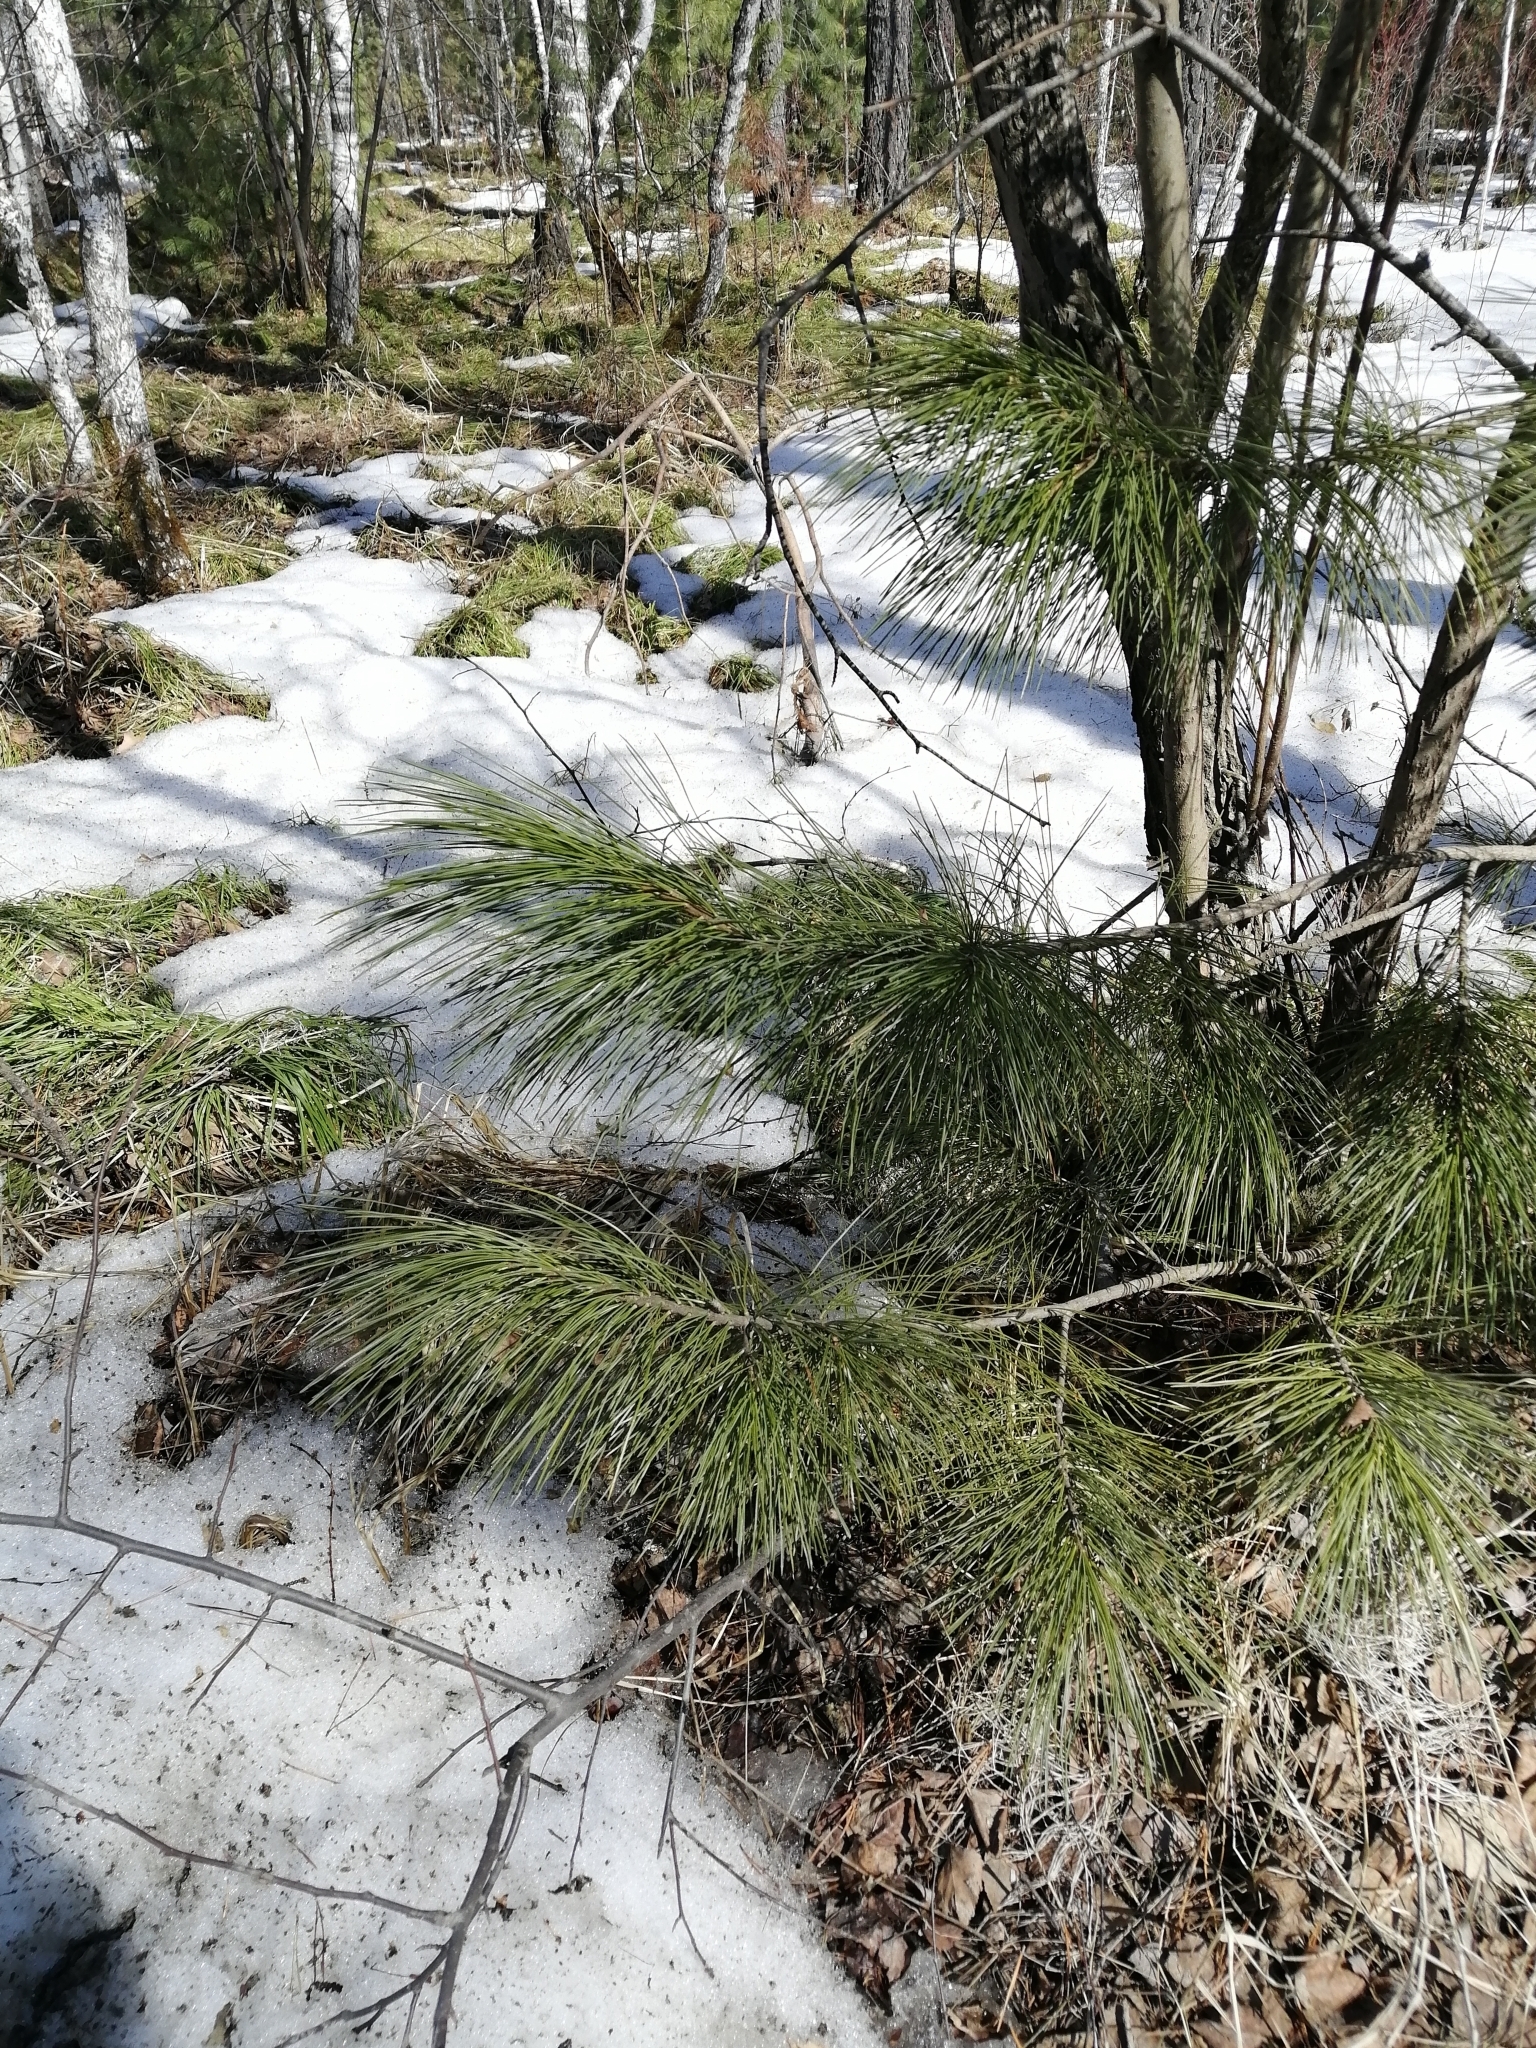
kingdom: Plantae
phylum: Tracheophyta
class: Pinopsida
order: Pinales
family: Pinaceae
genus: Pinus
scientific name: Pinus sibirica
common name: Siberian pine
